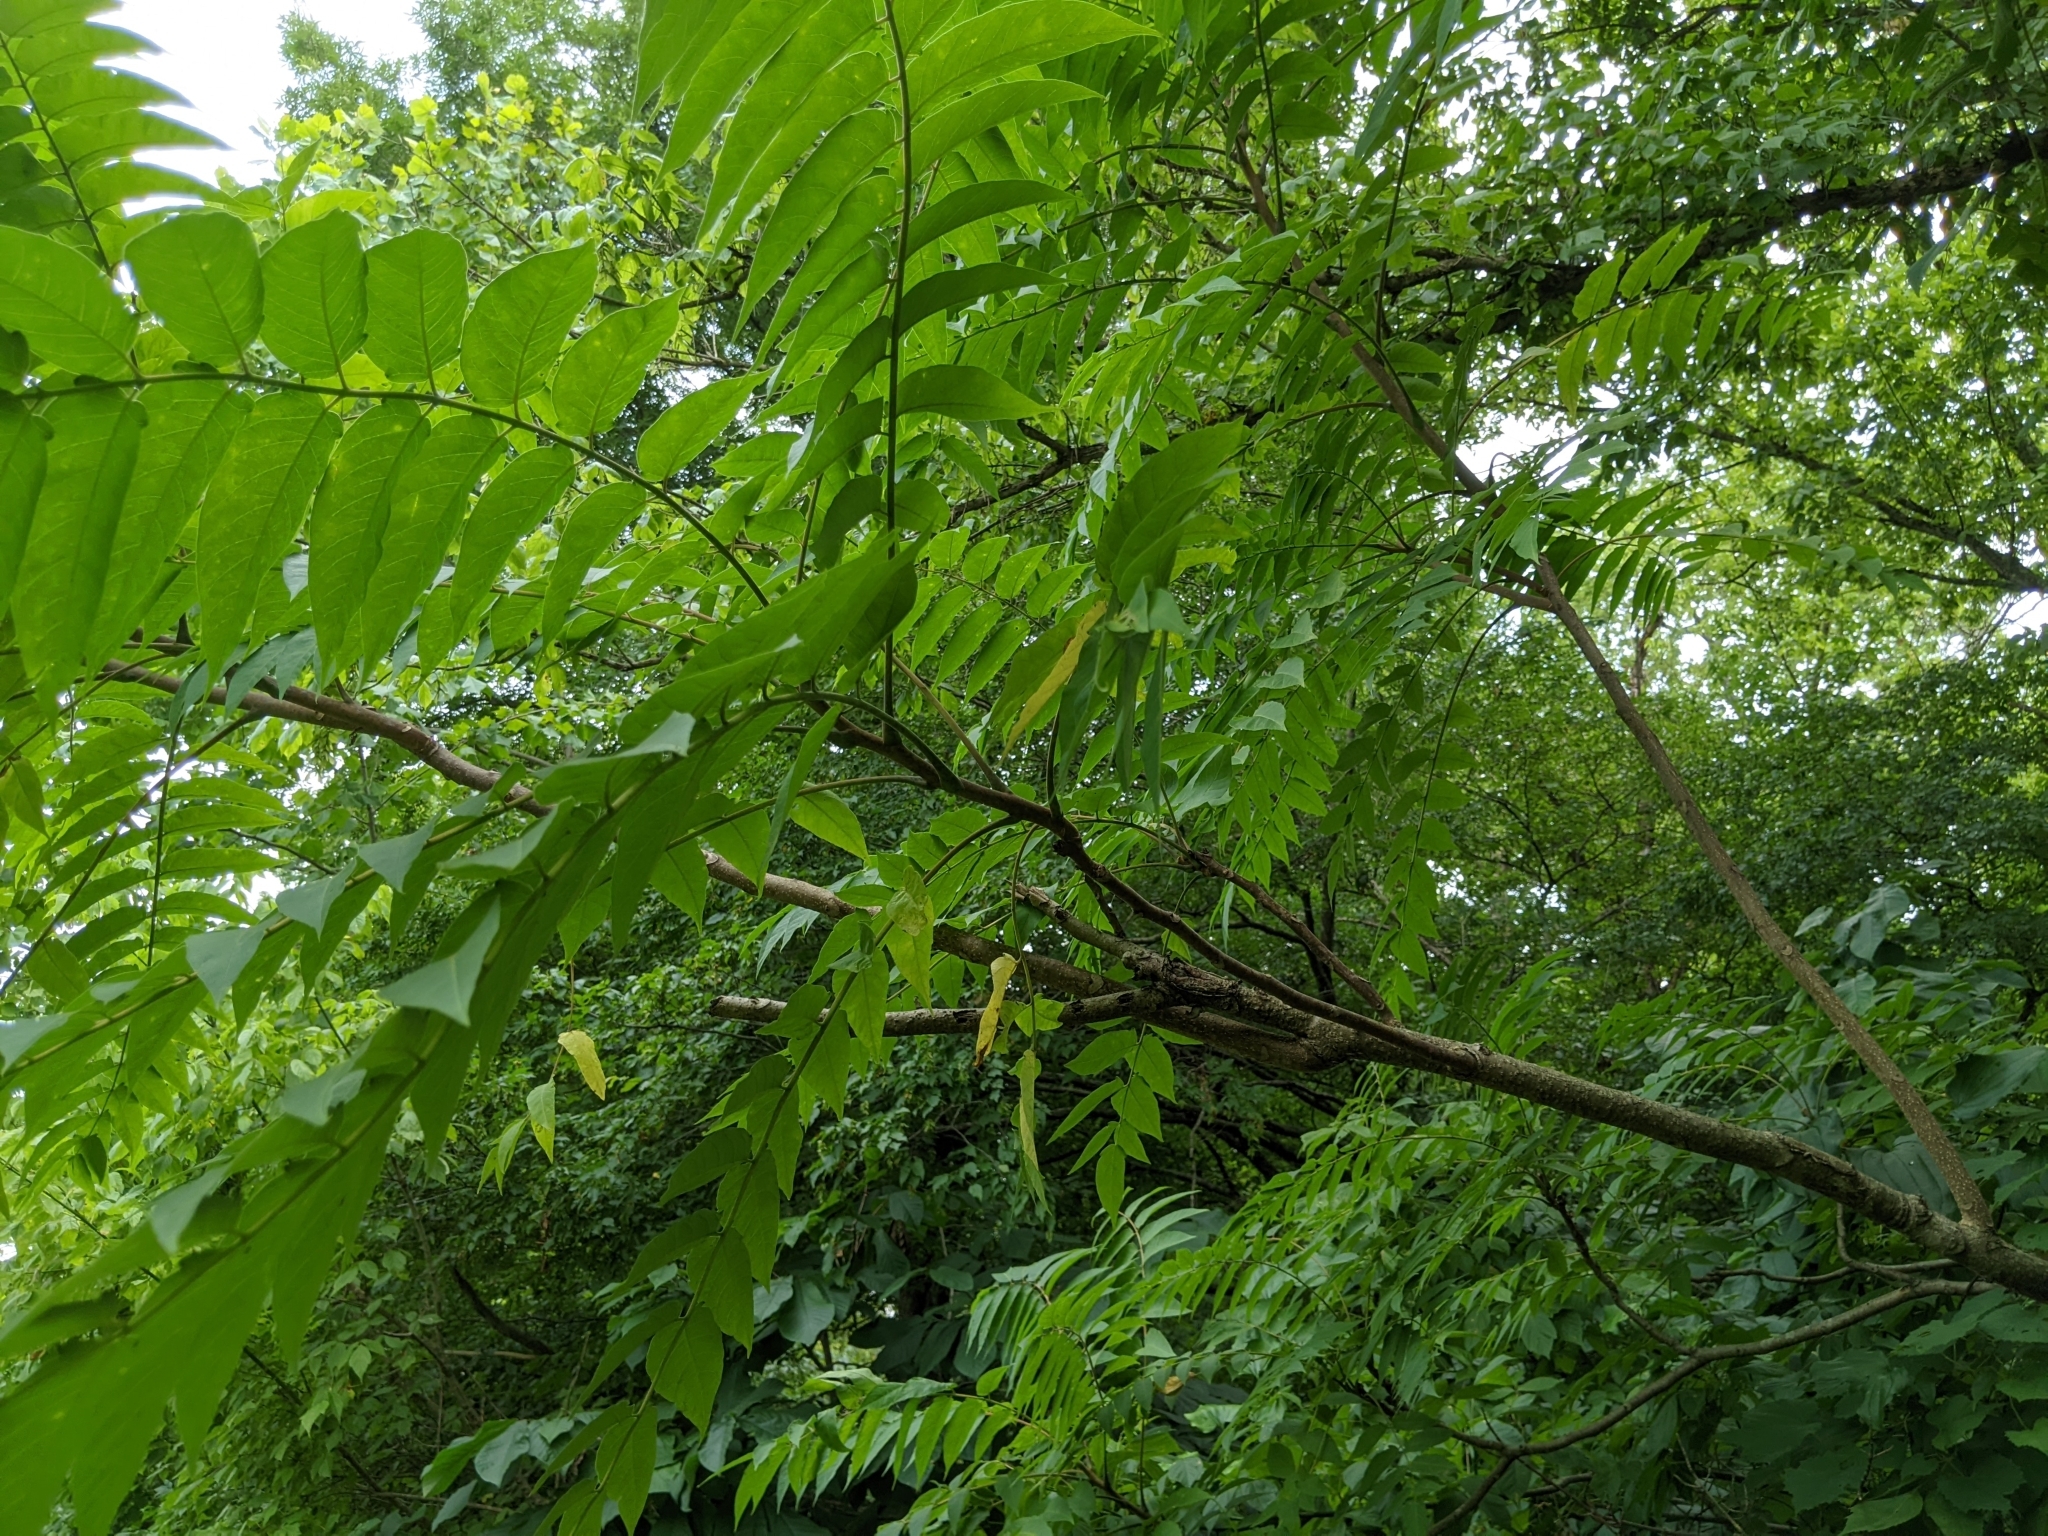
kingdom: Plantae
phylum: Tracheophyta
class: Magnoliopsida
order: Sapindales
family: Simaroubaceae
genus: Ailanthus
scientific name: Ailanthus altissima
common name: Tree-of-heaven
